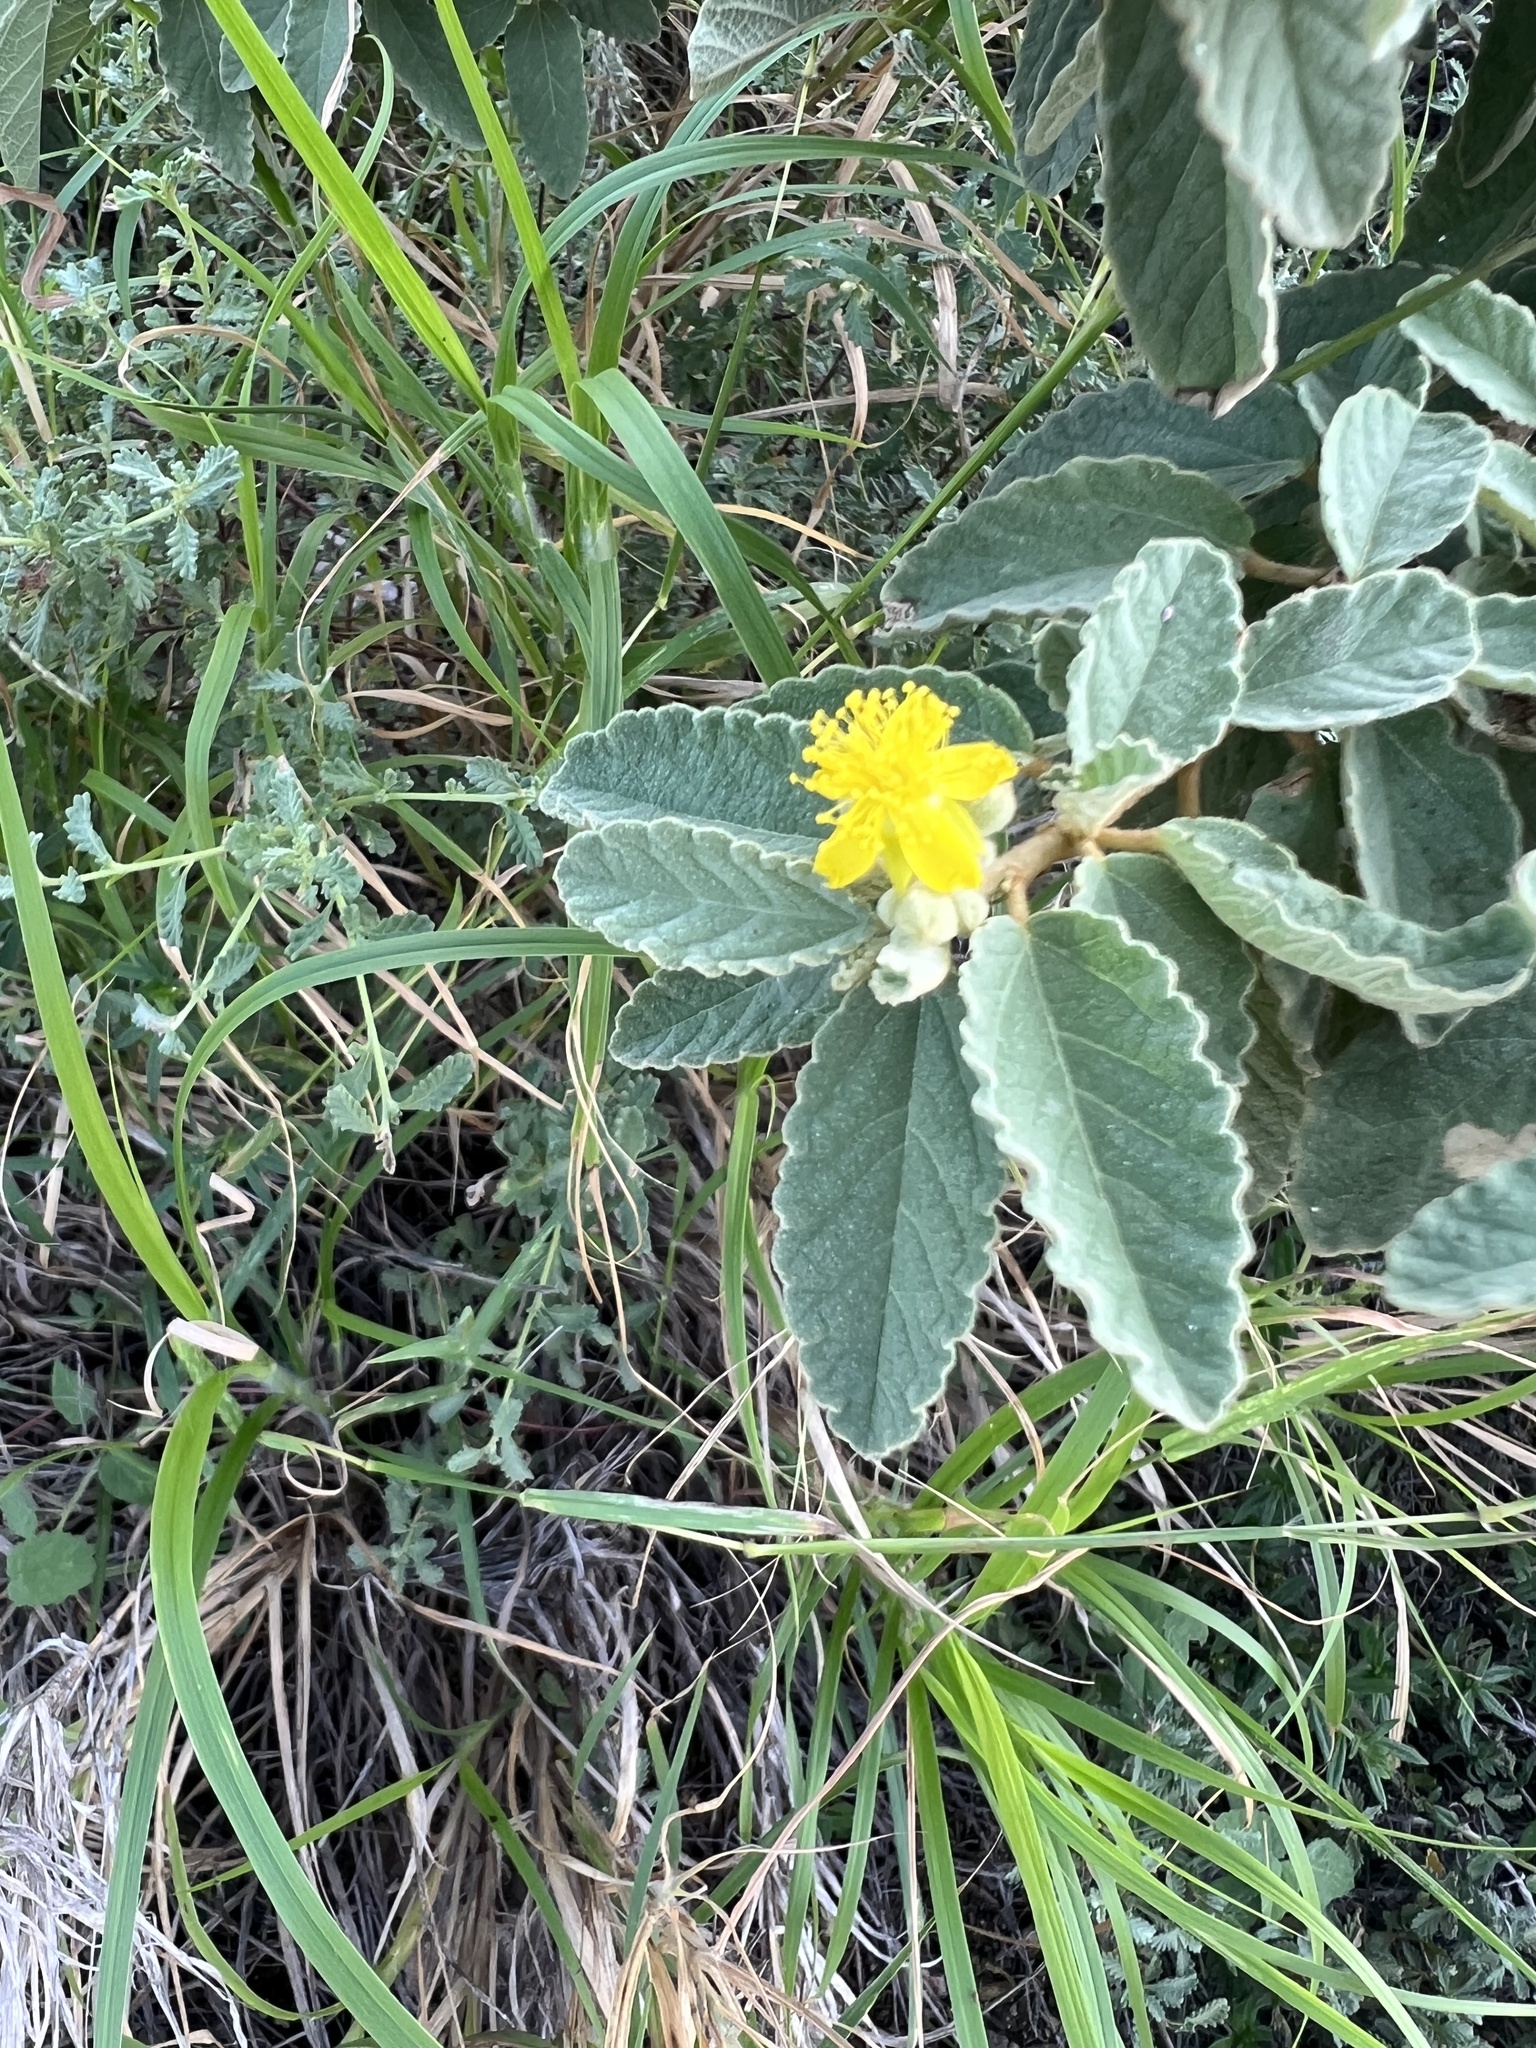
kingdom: Plantae
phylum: Tracheophyta
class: Magnoliopsida
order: Malvales
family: Malvaceae
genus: Corchorus
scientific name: Corchorus hirsutus
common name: Jackswitch
